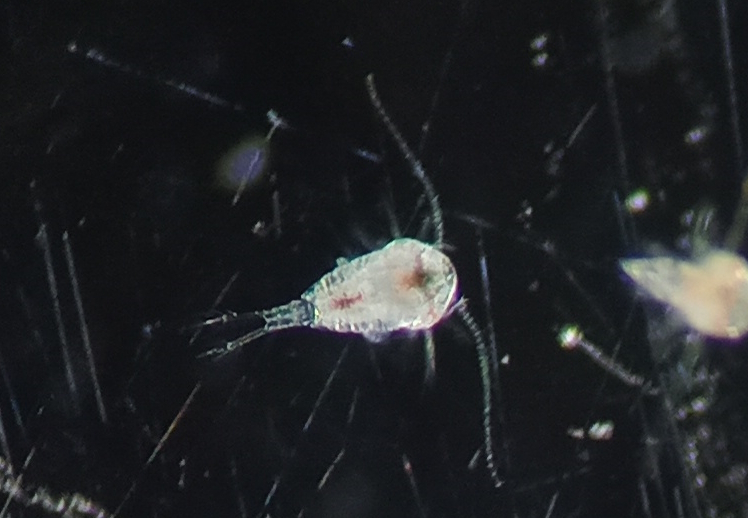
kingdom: Animalia
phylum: Arthropoda
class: Copepoda
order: Calanoida
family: Temoridae
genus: Temora
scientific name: Temora turbinata
